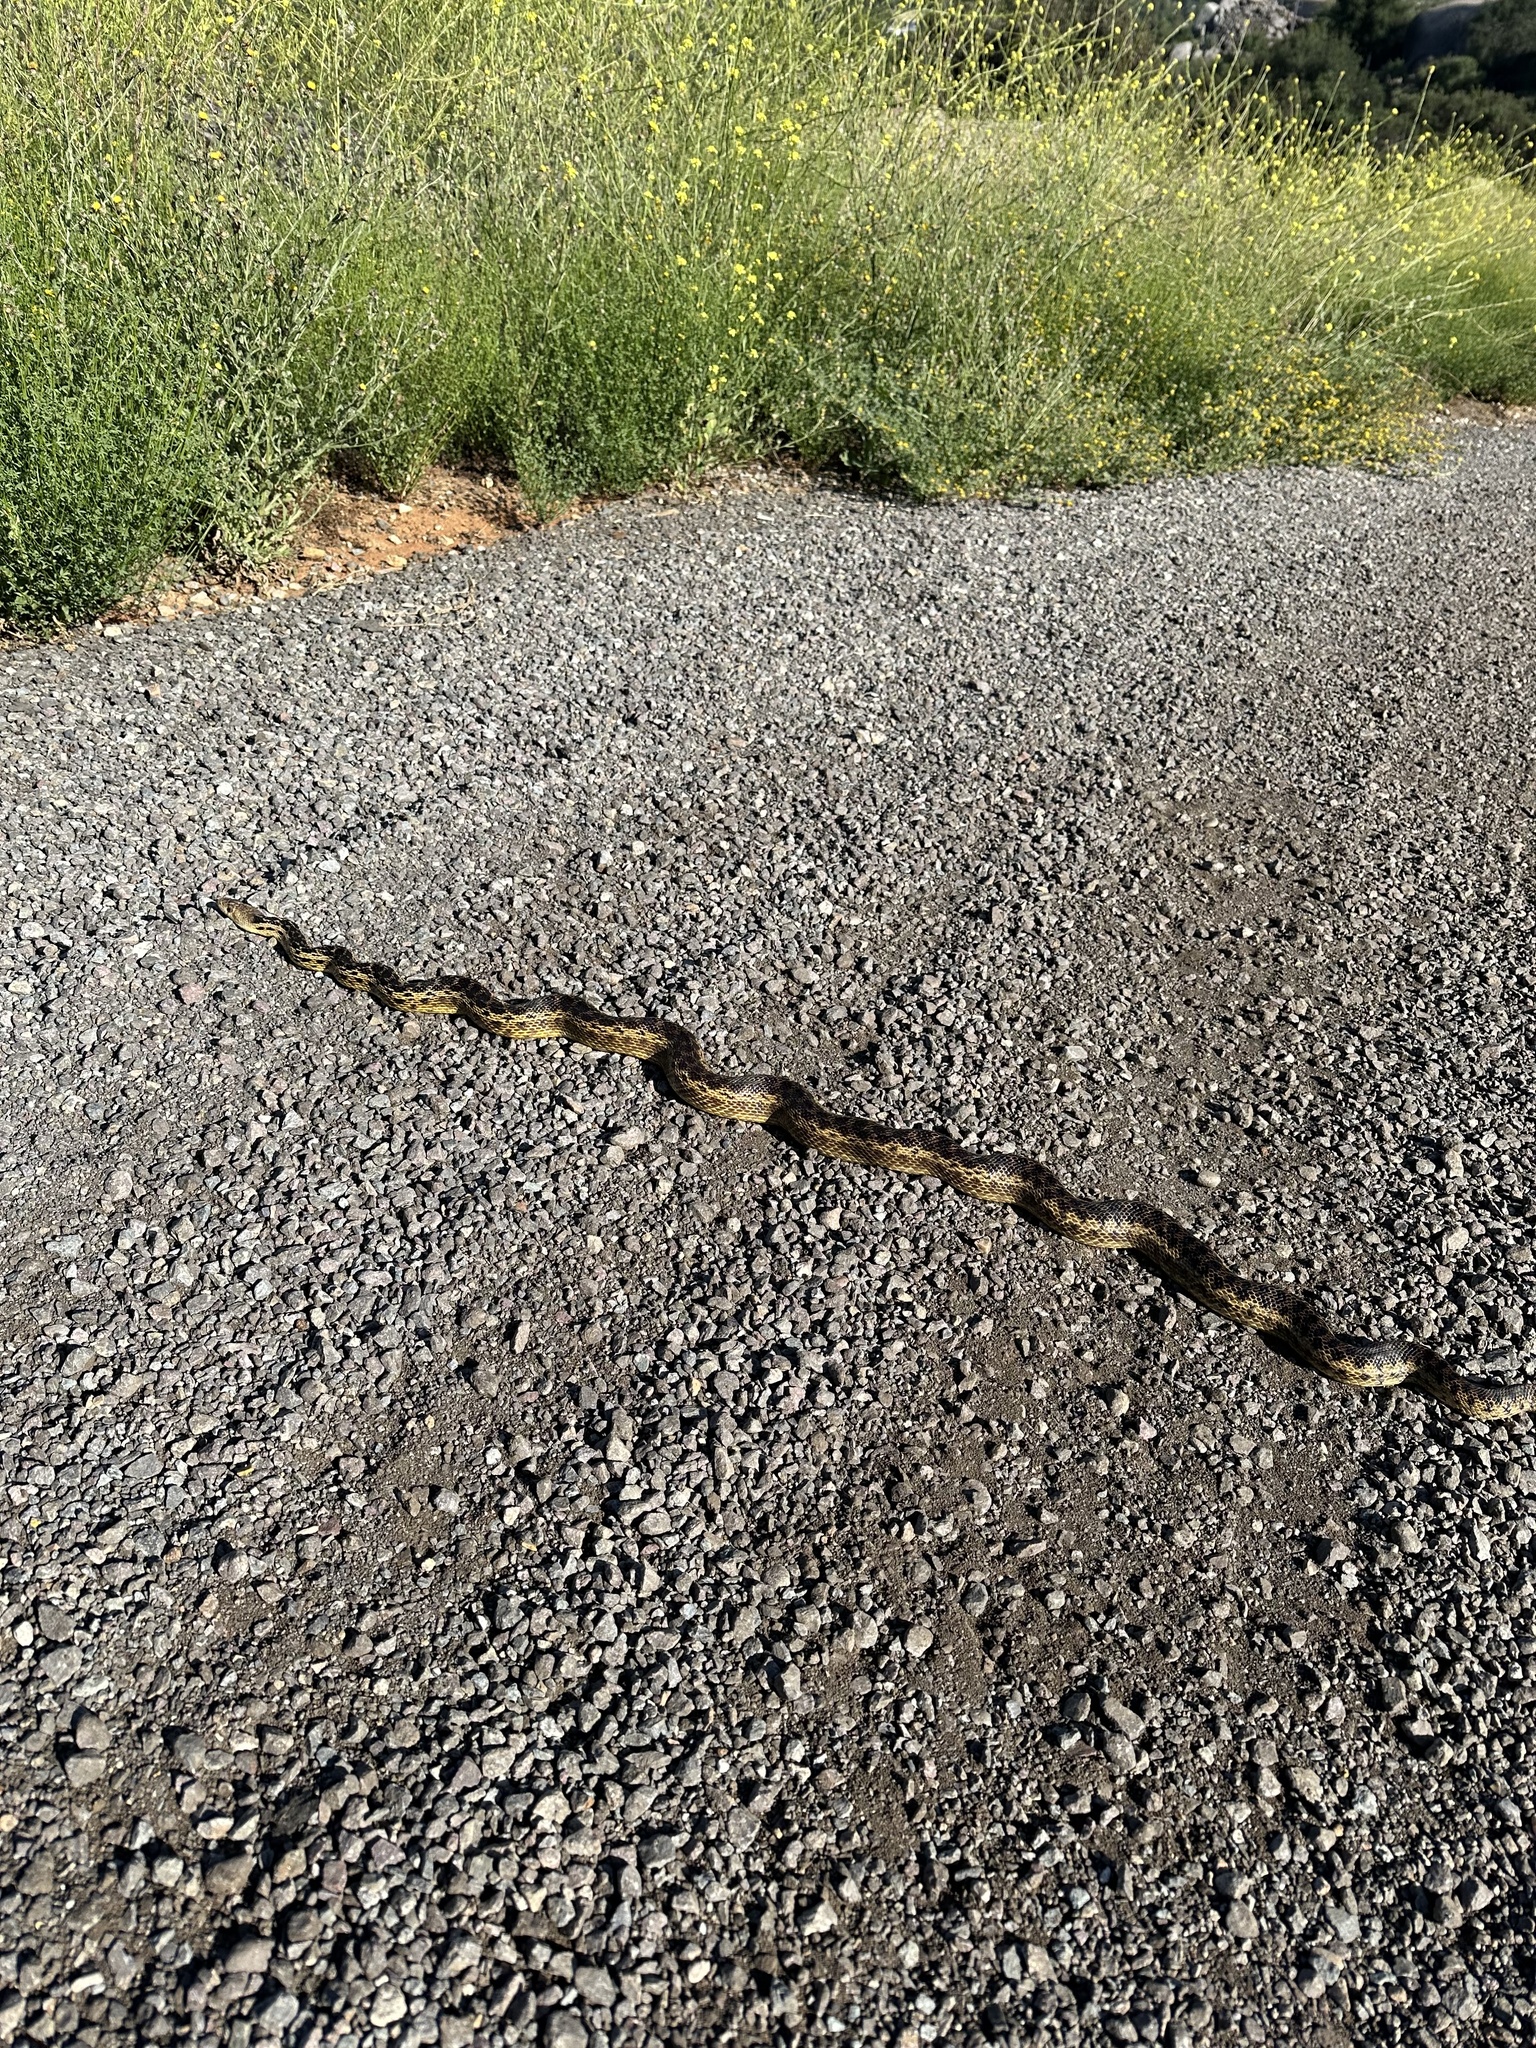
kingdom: Animalia
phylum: Chordata
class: Squamata
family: Colubridae
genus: Pituophis
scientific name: Pituophis catenifer
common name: Gopher snake
